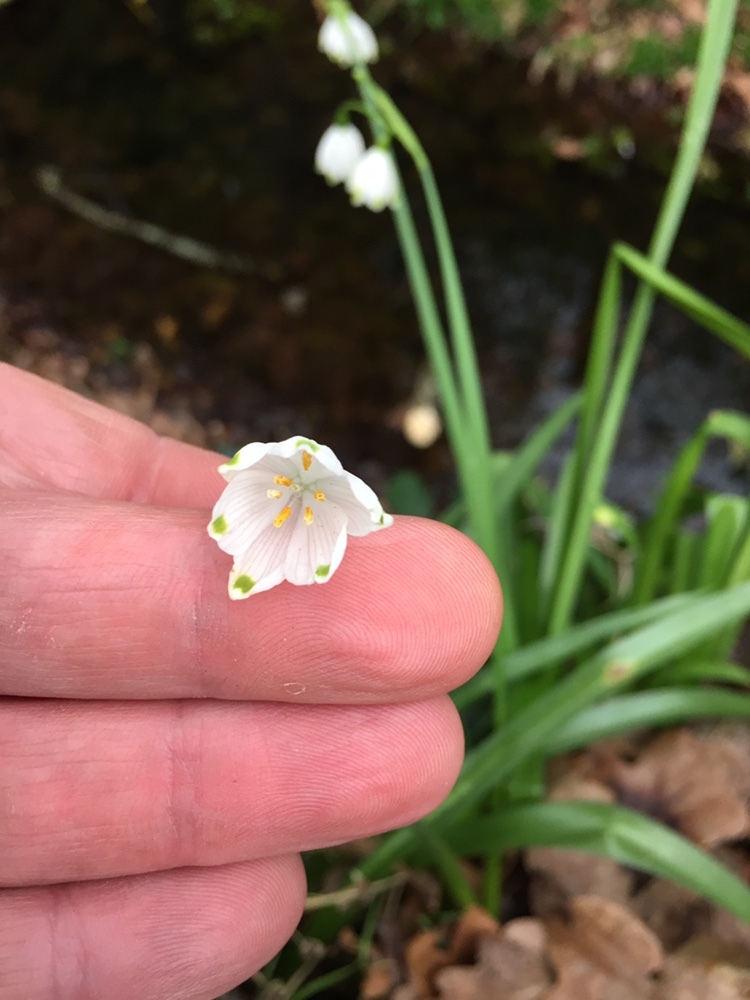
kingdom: Plantae
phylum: Tracheophyta
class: Liliopsida
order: Asparagales
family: Amaryllidaceae
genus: Leucojum
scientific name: Leucojum aestivum
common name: Summer snowflake
